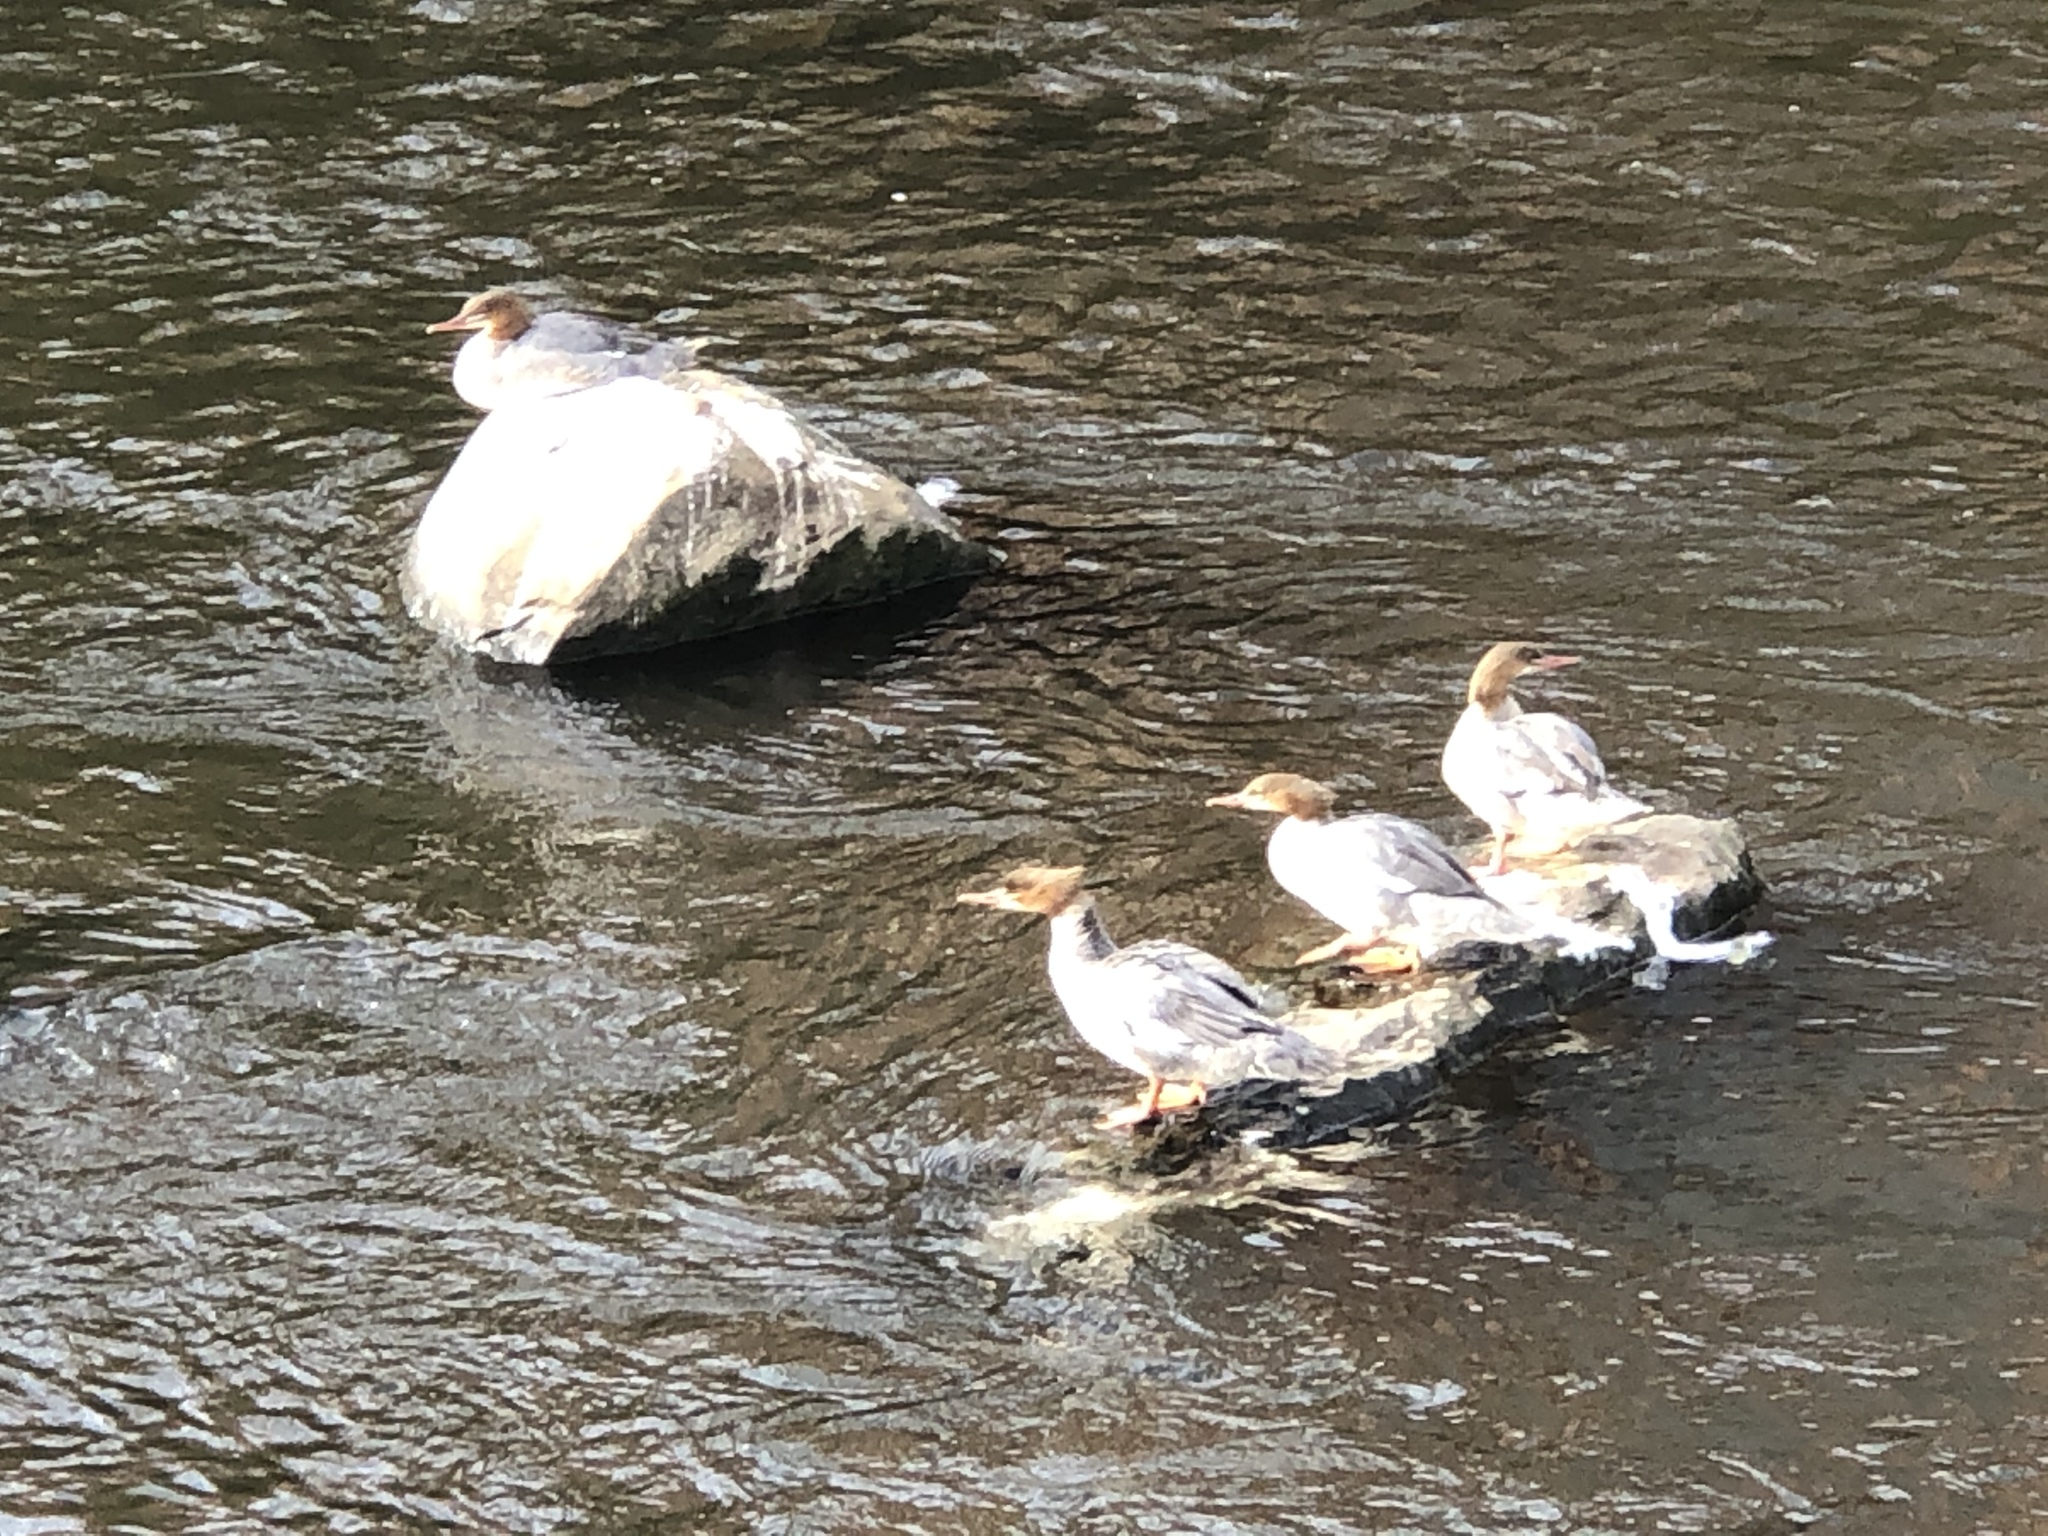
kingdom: Animalia
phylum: Chordata
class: Aves
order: Anseriformes
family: Anatidae
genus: Mergus
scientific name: Mergus merganser
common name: Common merganser
